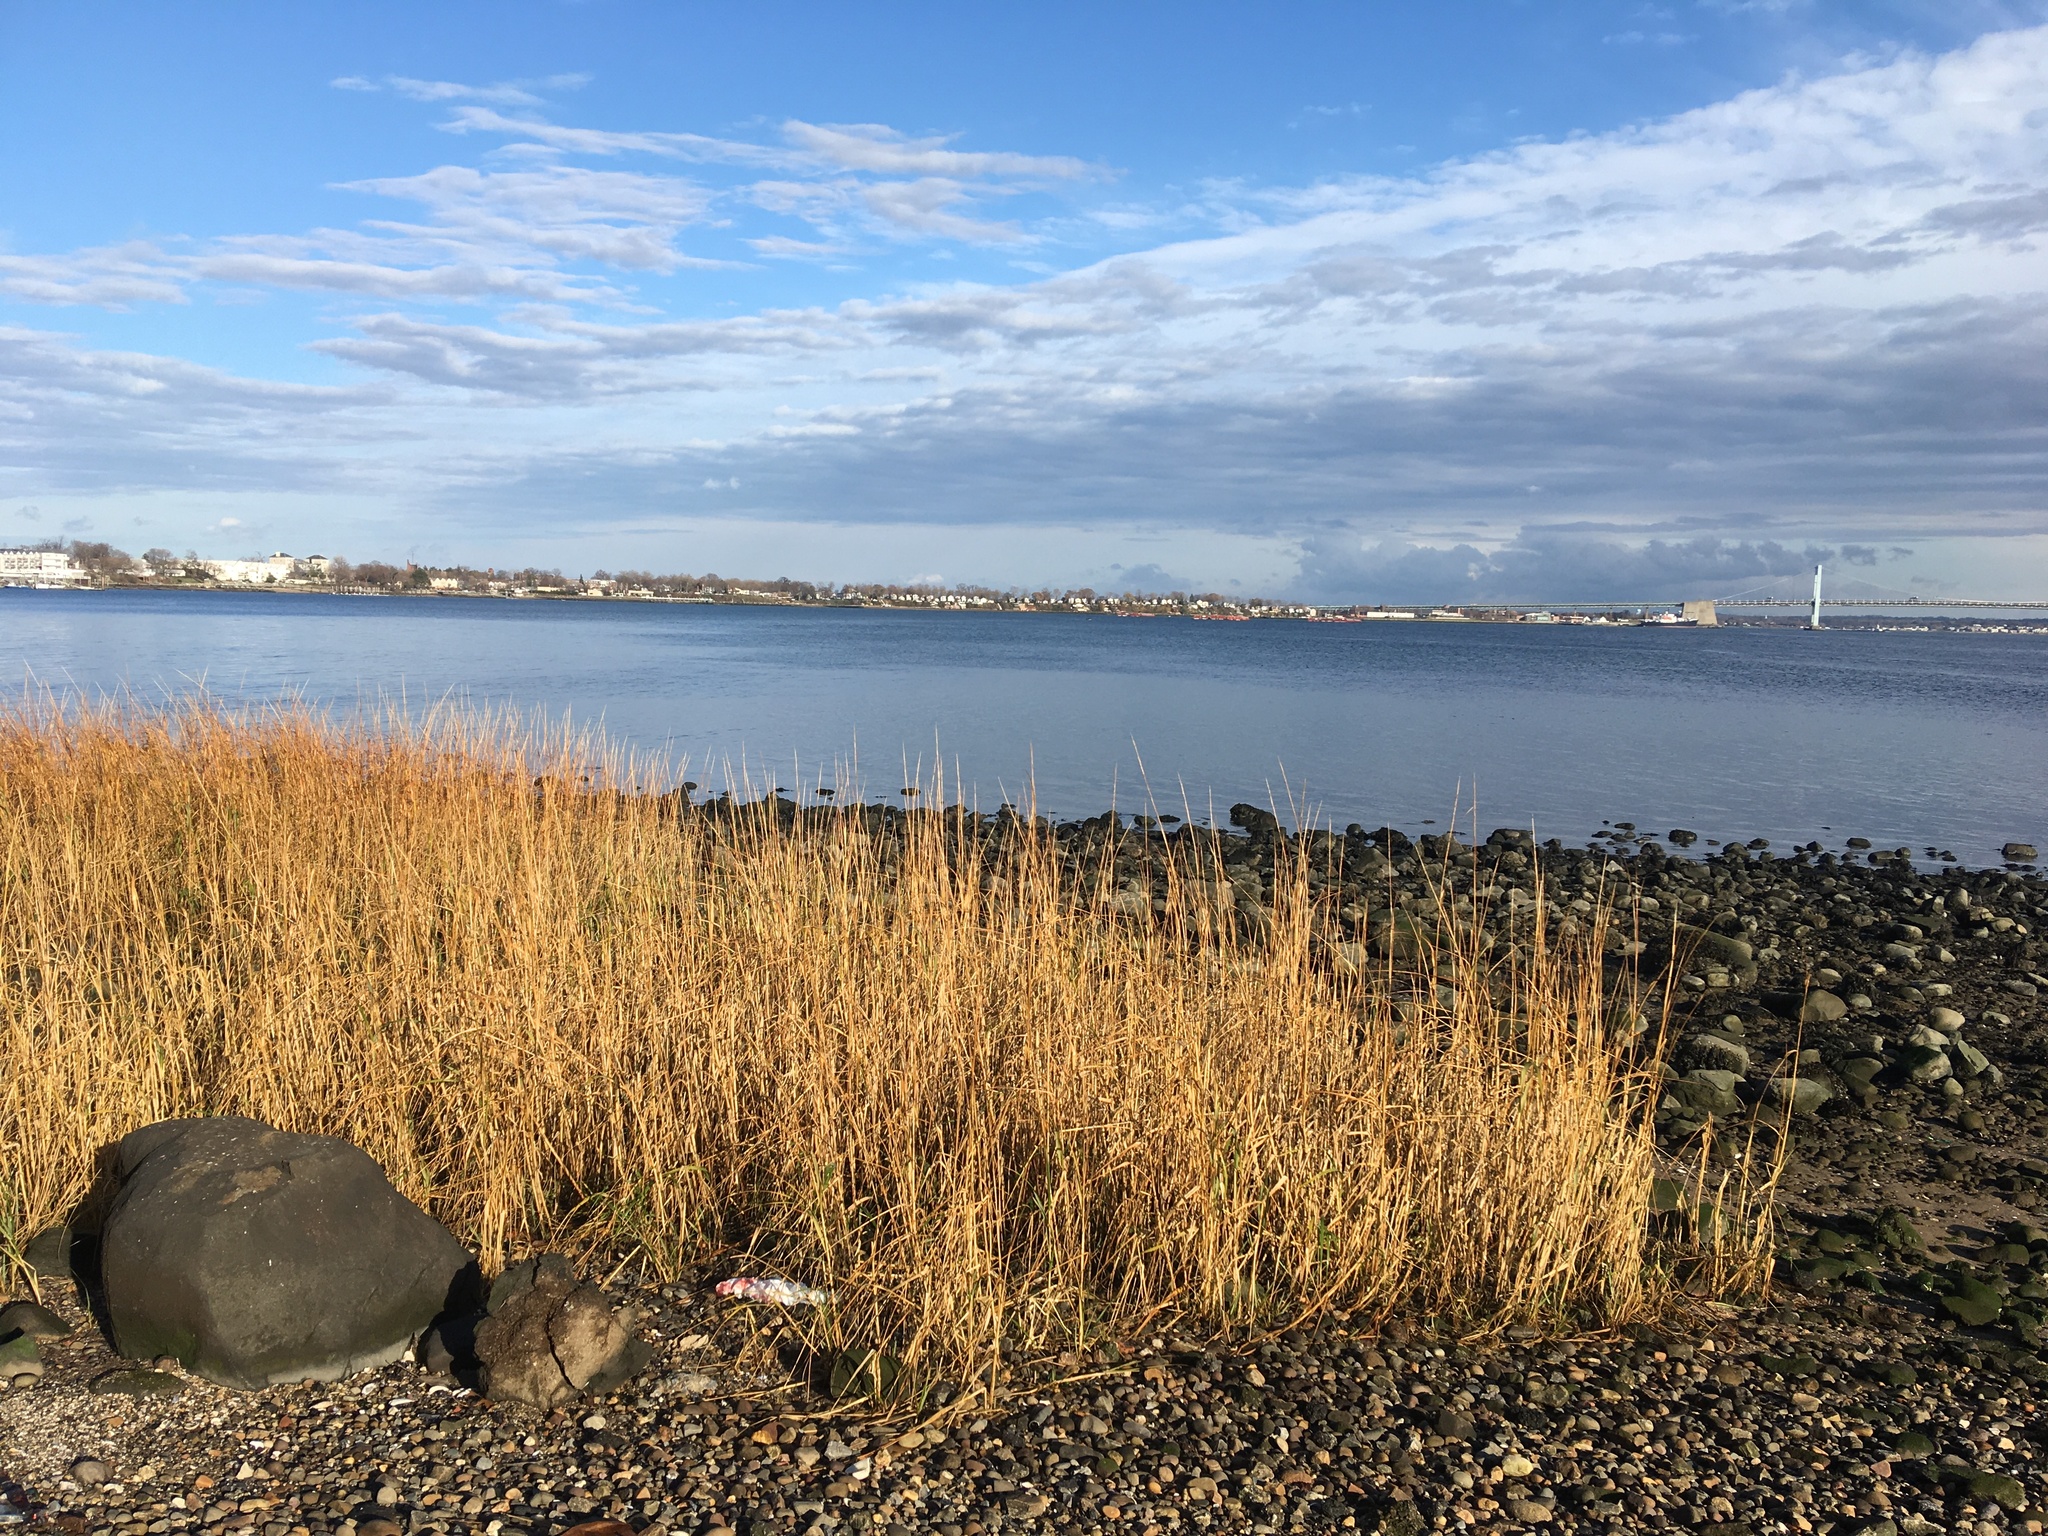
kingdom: Plantae
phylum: Tracheophyta
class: Liliopsida
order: Poales
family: Poaceae
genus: Sporobolus
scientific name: Sporobolus alterniflorus
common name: Atlantic cordgrass
